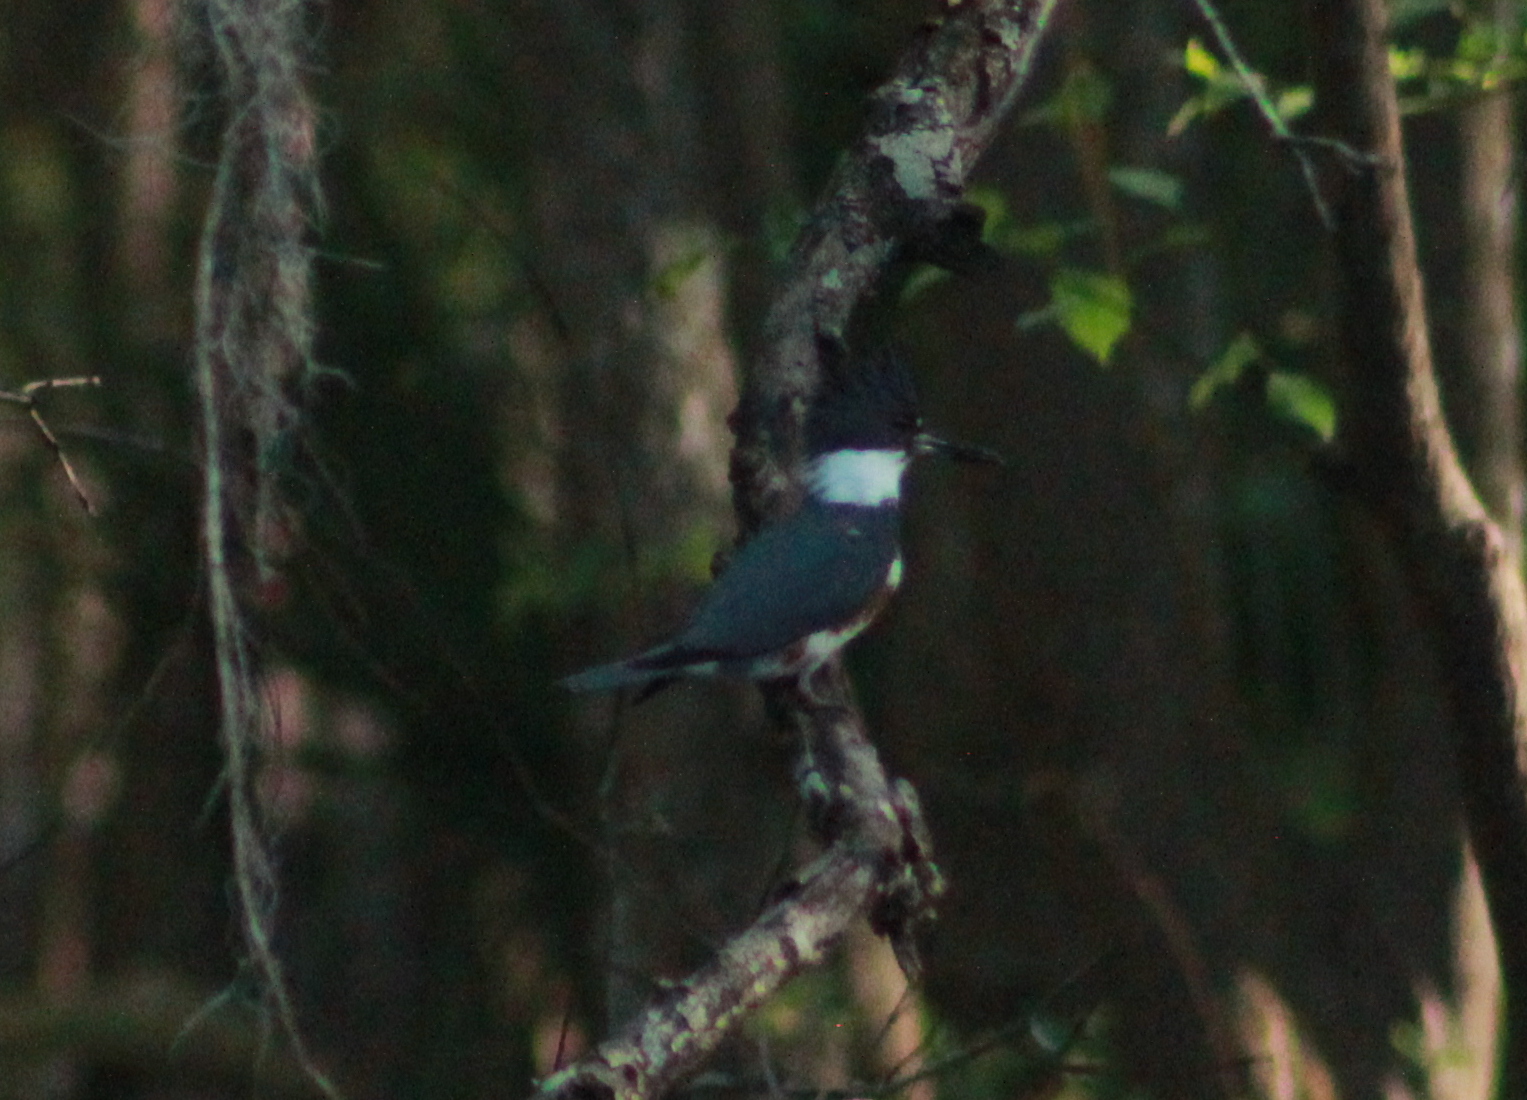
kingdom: Animalia
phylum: Chordata
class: Aves
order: Coraciiformes
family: Alcedinidae
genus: Megaceryle
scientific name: Megaceryle alcyon
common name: Belted kingfisher
